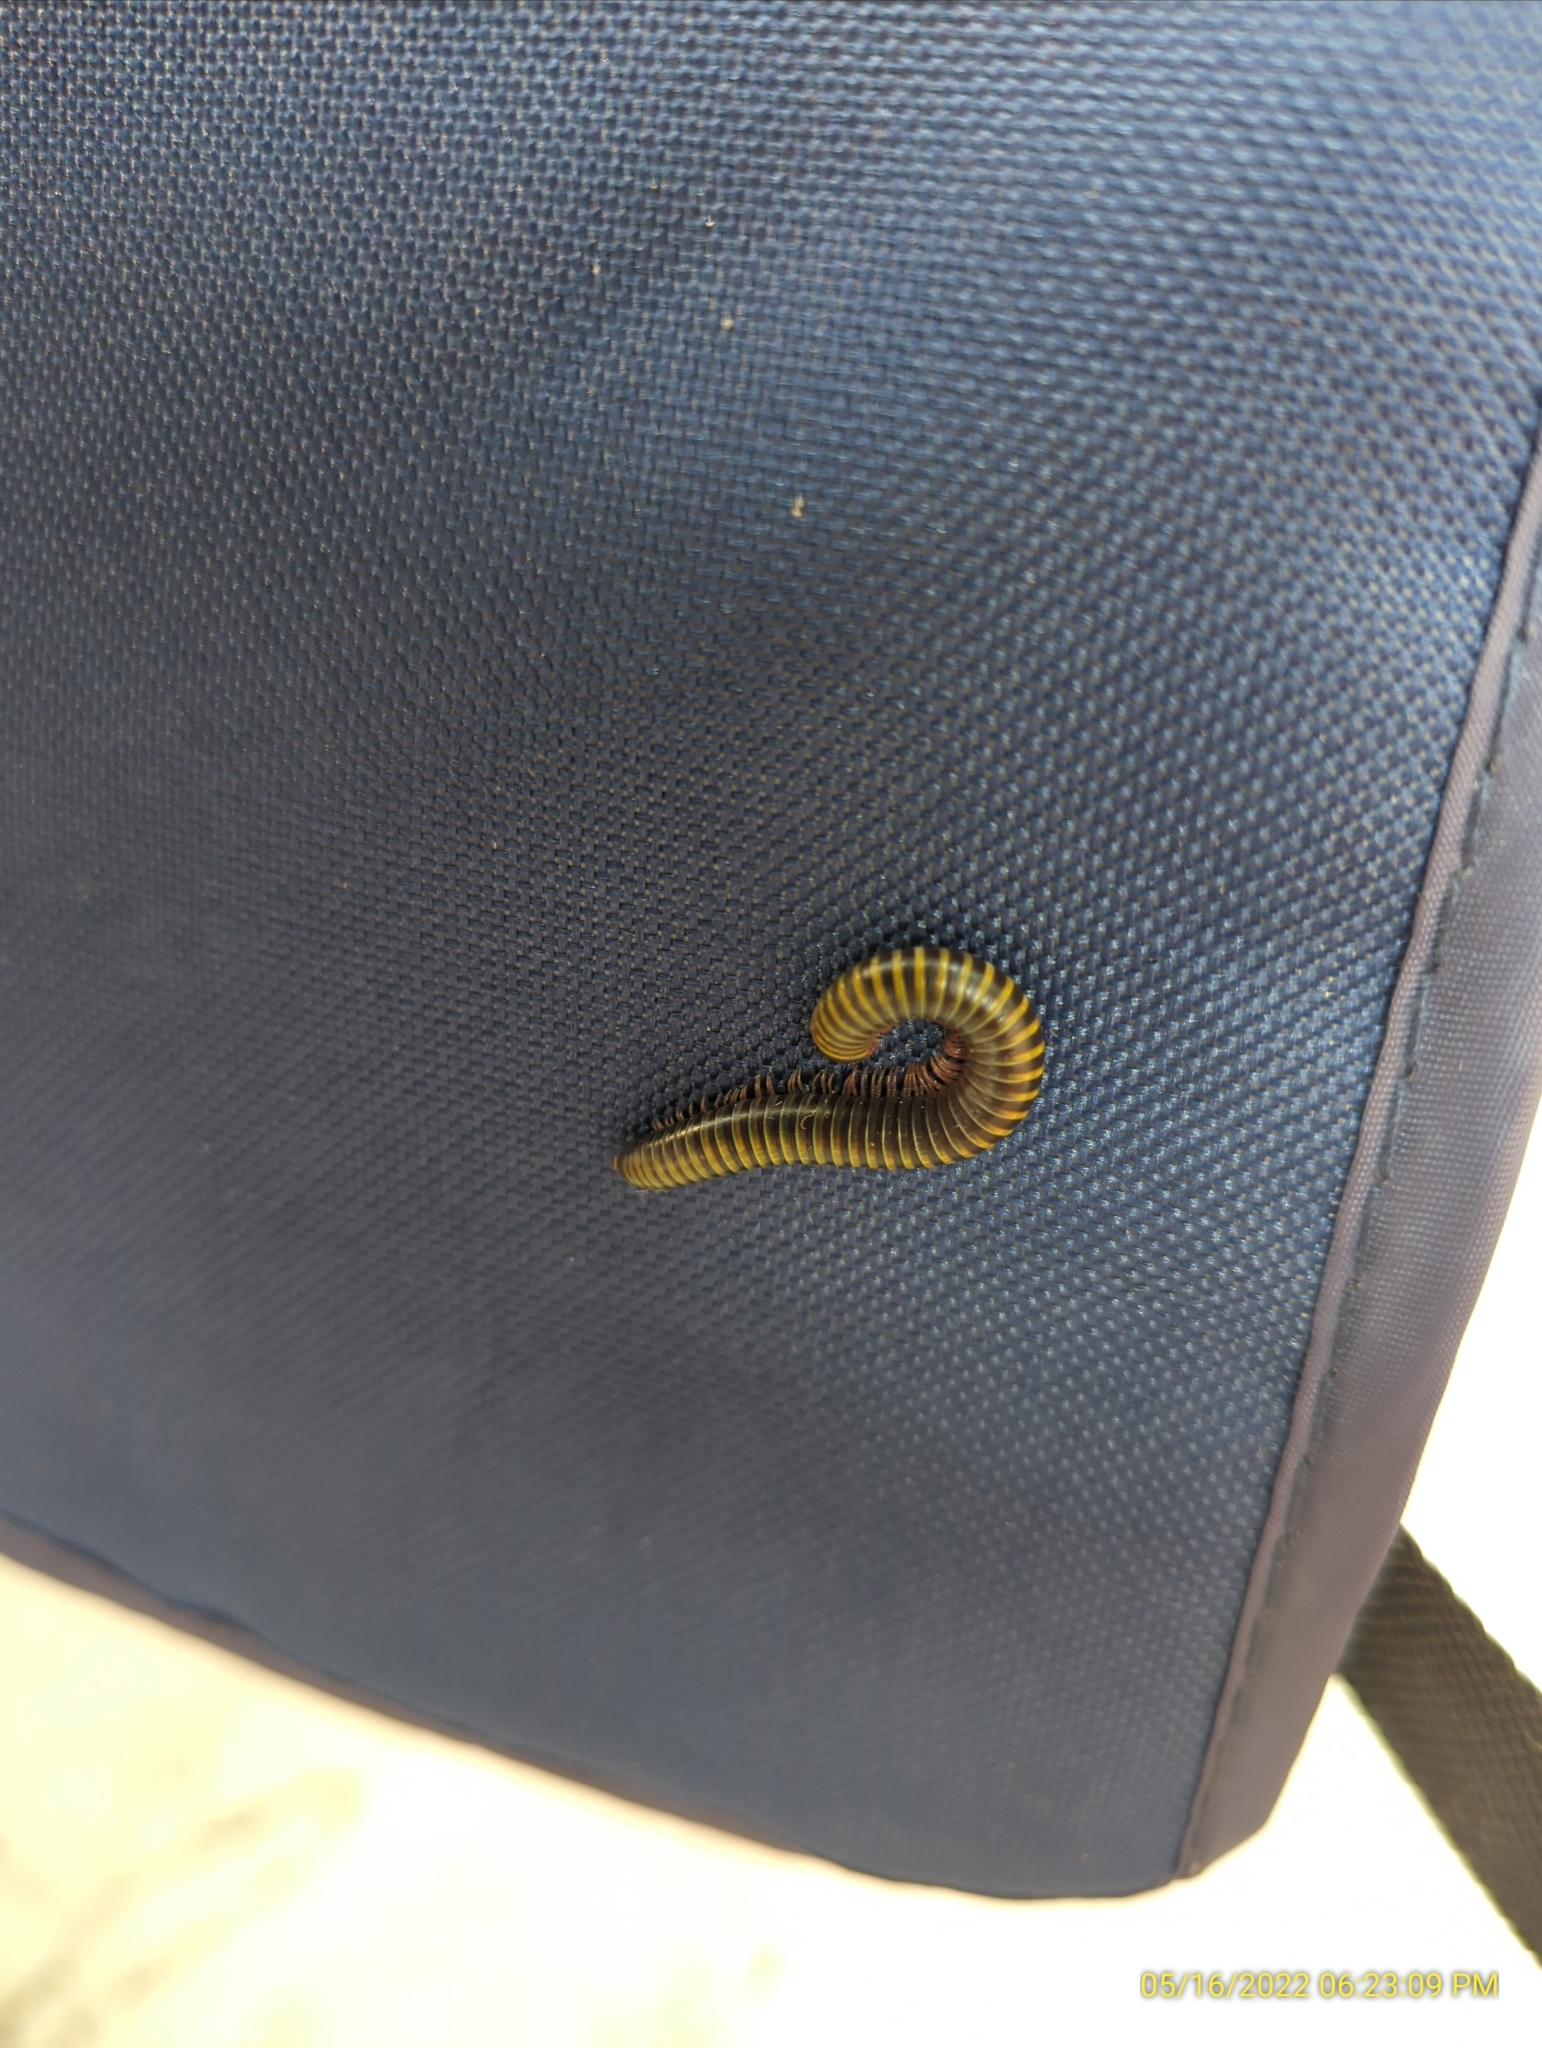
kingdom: Animalia
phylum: Arthropoda
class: Diplopoda
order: Spirobolida
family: Rhinocricidae
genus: Anadenobolus
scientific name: Anadenobolus monilicornis
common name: Caribbean millipede
